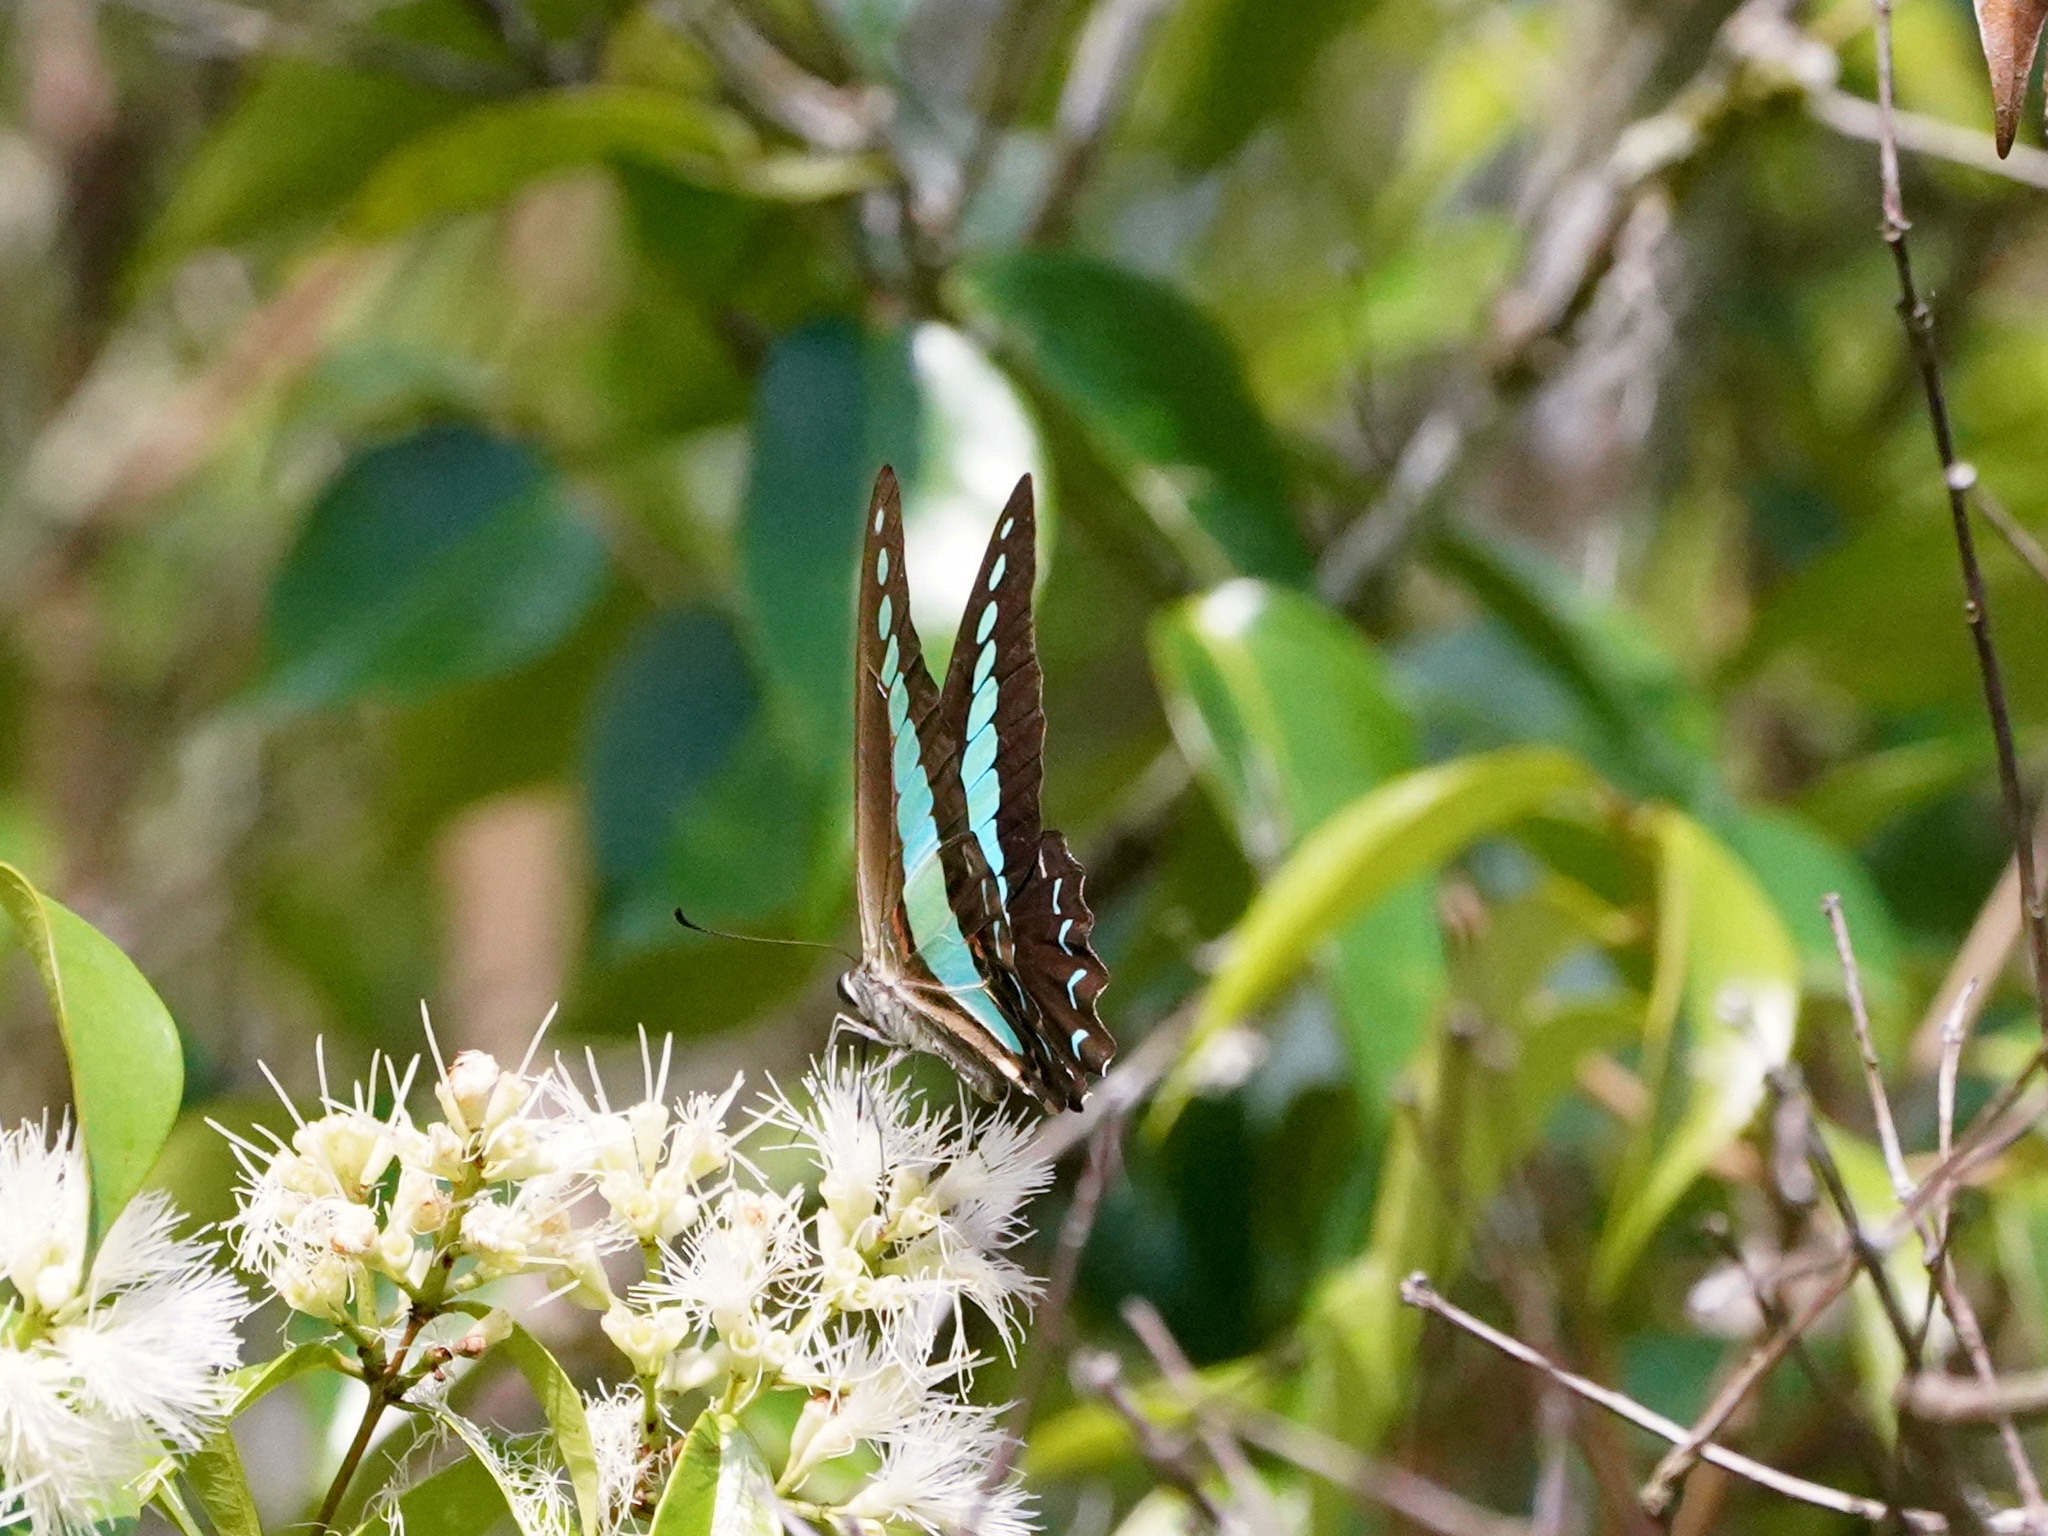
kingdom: Fungi
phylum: Ascomycota
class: Sordariomycetes
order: Microascales
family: Microascaceae
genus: Graphium
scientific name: Graphium sarpedon
